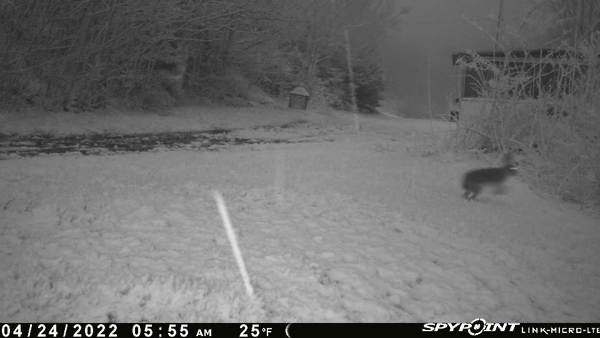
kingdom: Animalia
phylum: Chordata
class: Mammalia
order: Lagomorpha
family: Leporidae
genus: Lepus
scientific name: Lepus americanus
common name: Snowshoe hare
